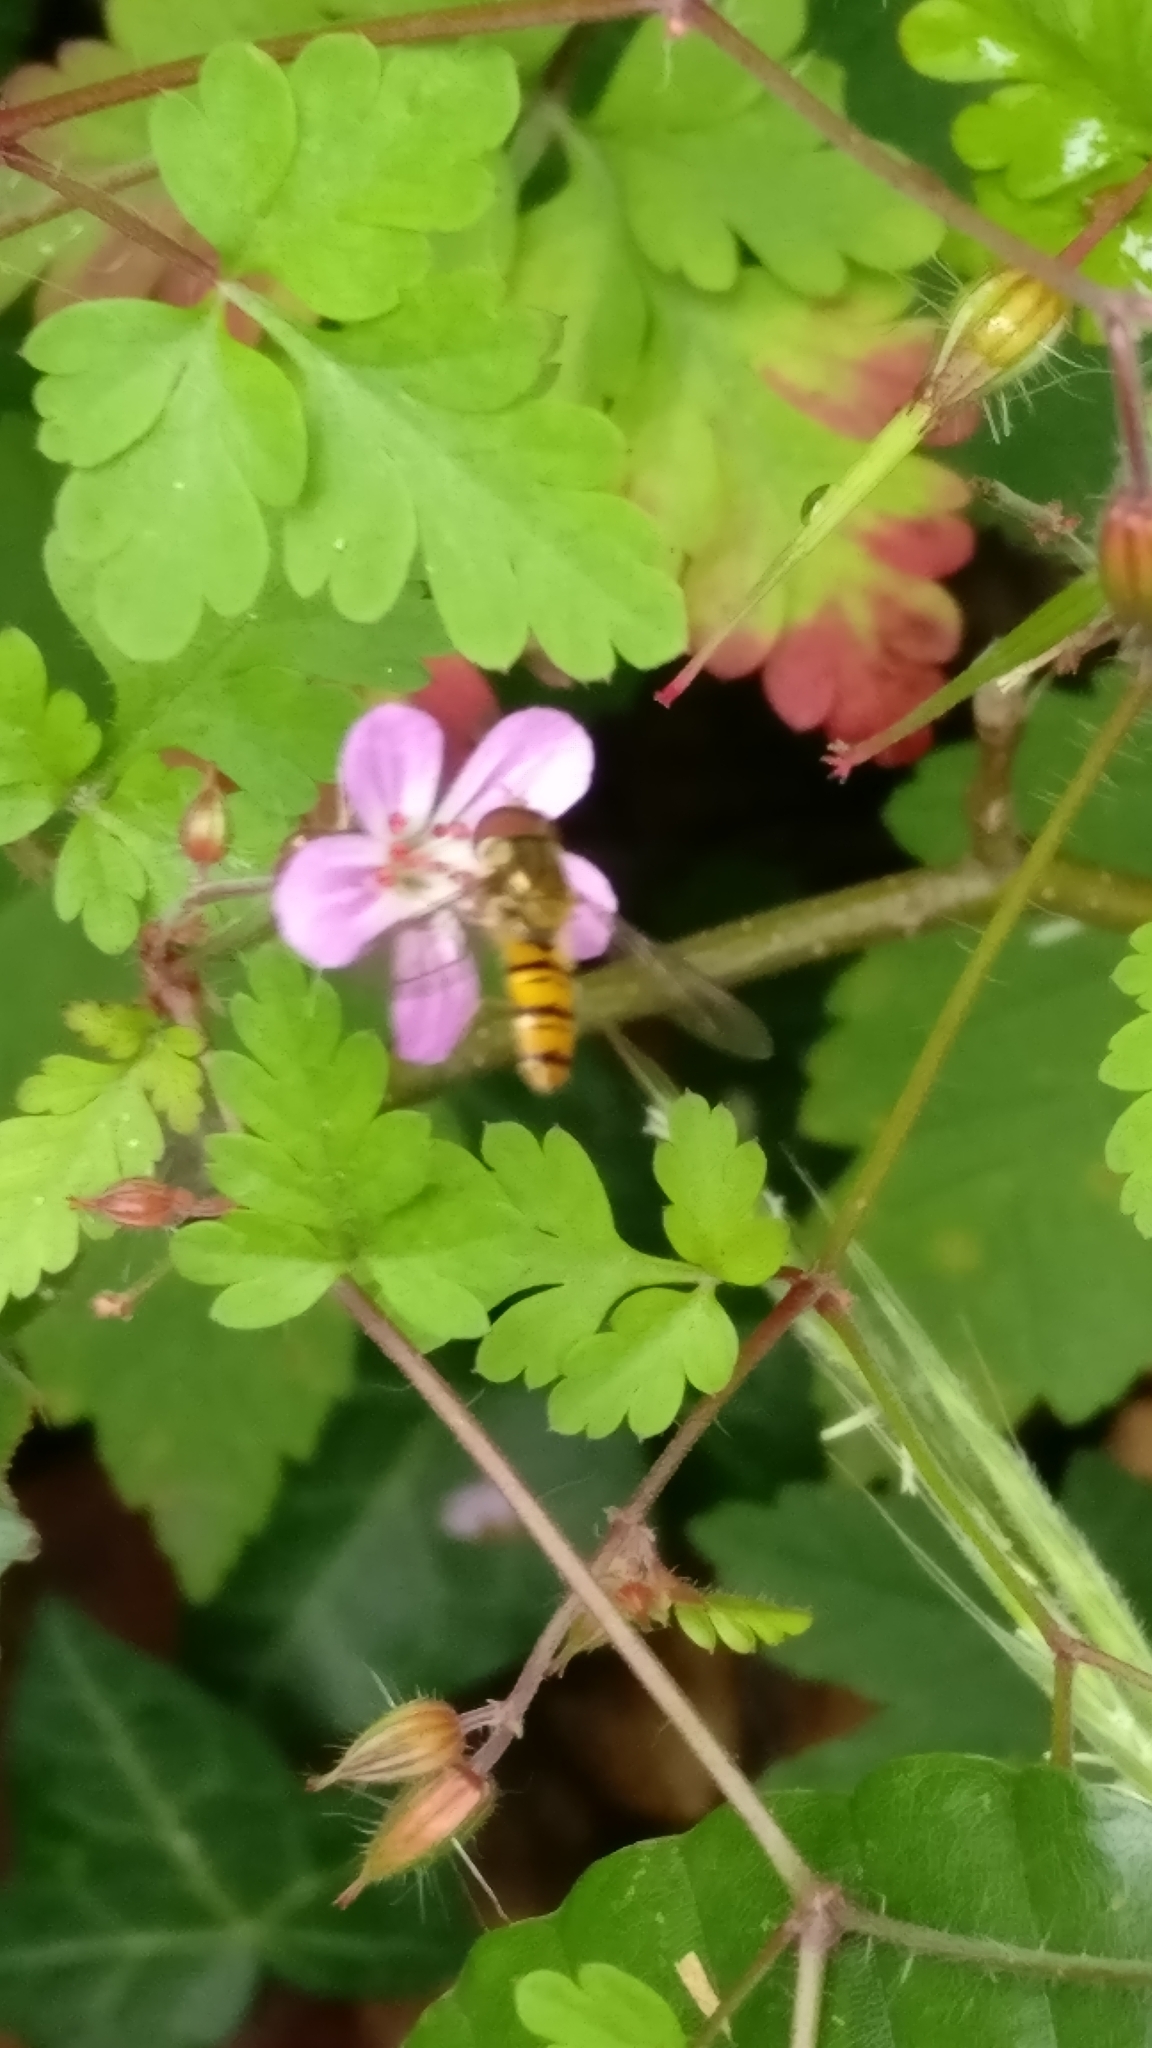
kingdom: Animalia
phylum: Arthropoda
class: Insecta
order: Diptera
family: Syrphidae
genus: Episyrphus
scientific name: Episyrphus balteatus
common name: Marmalade hoverfly
